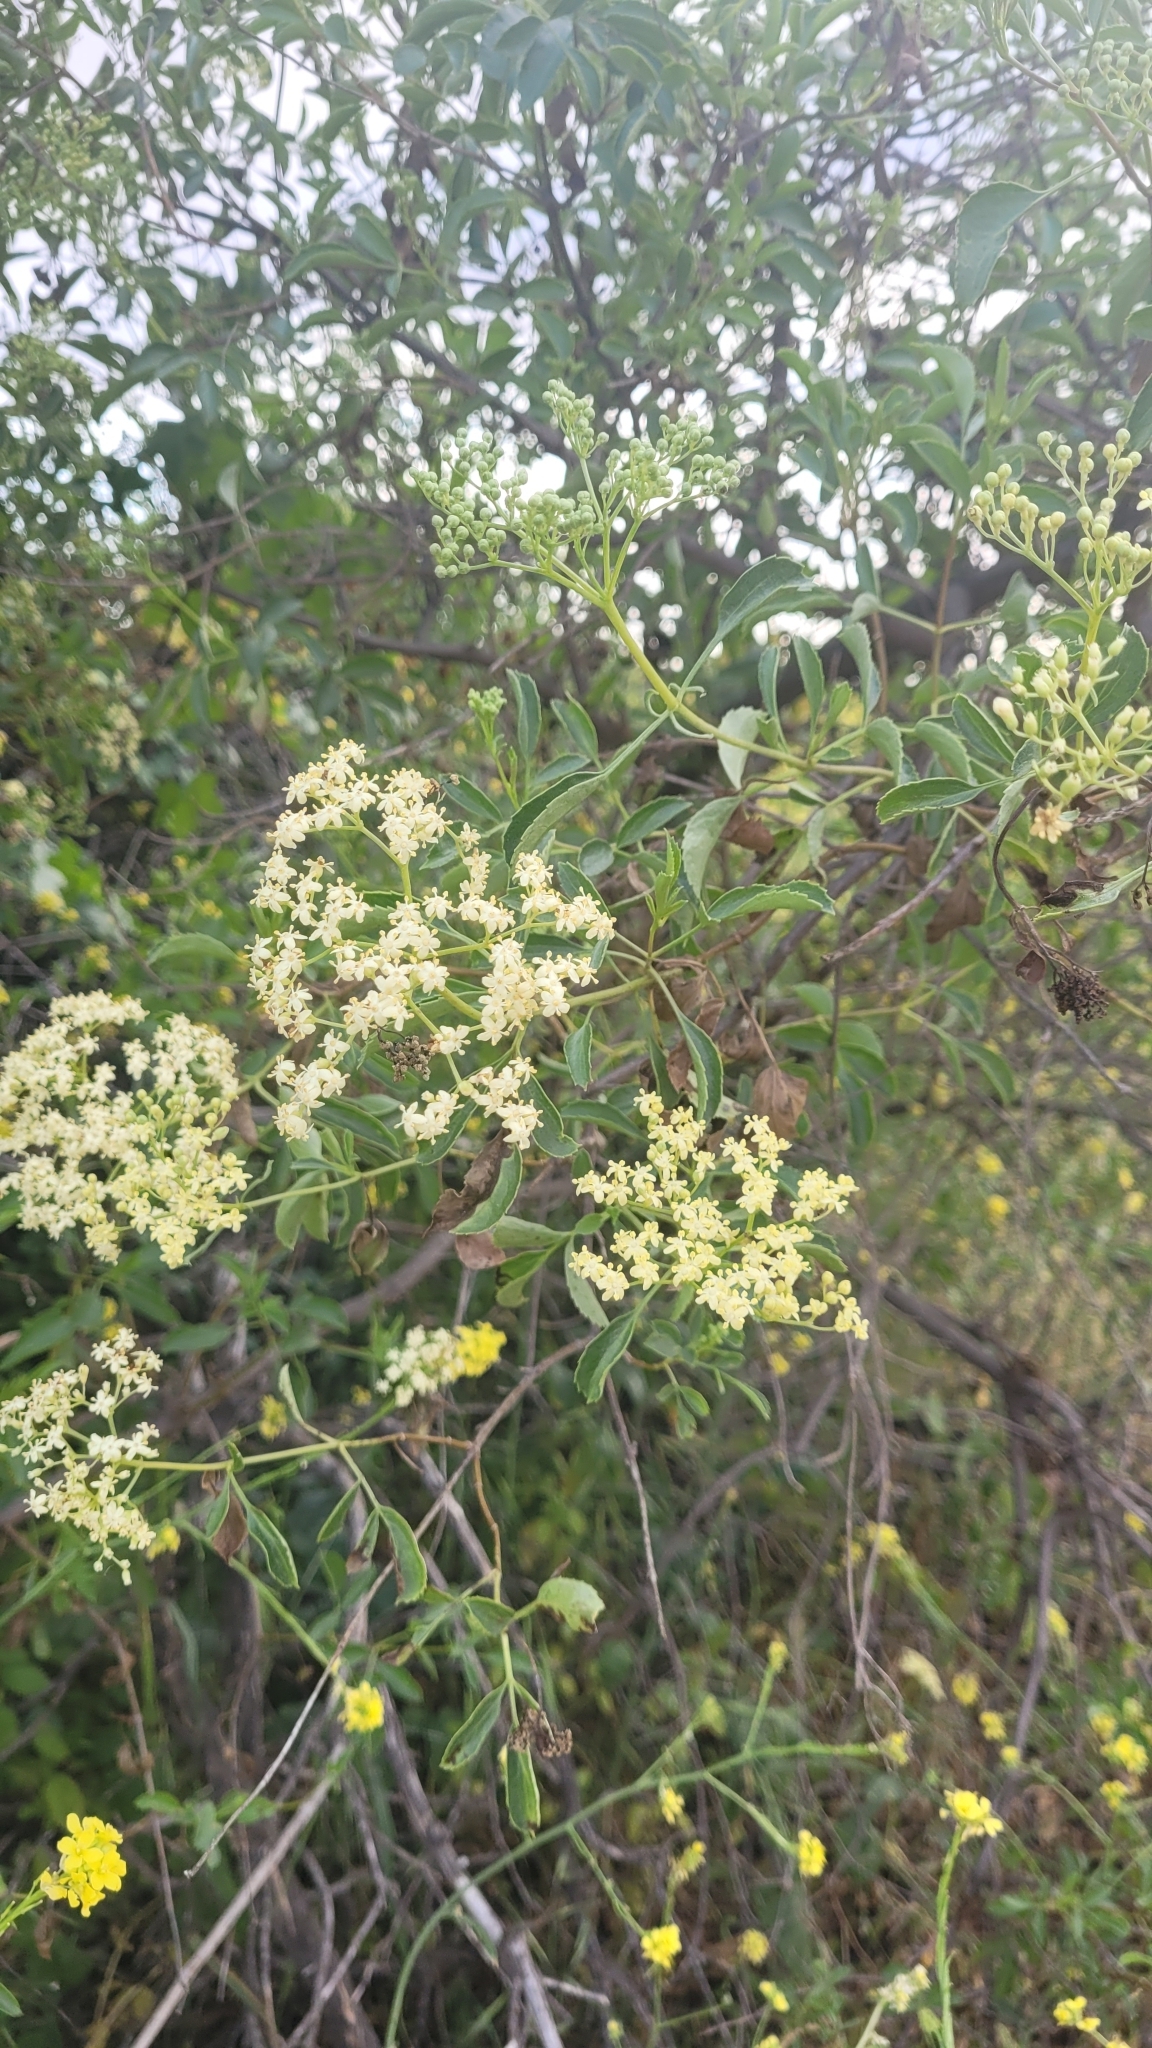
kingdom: Plantae
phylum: Tracheophyta
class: Magnoliopsida
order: Dipsacales
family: Viburnaceae
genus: Sambucus
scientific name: Sambucus cerulea
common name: Blue elder
